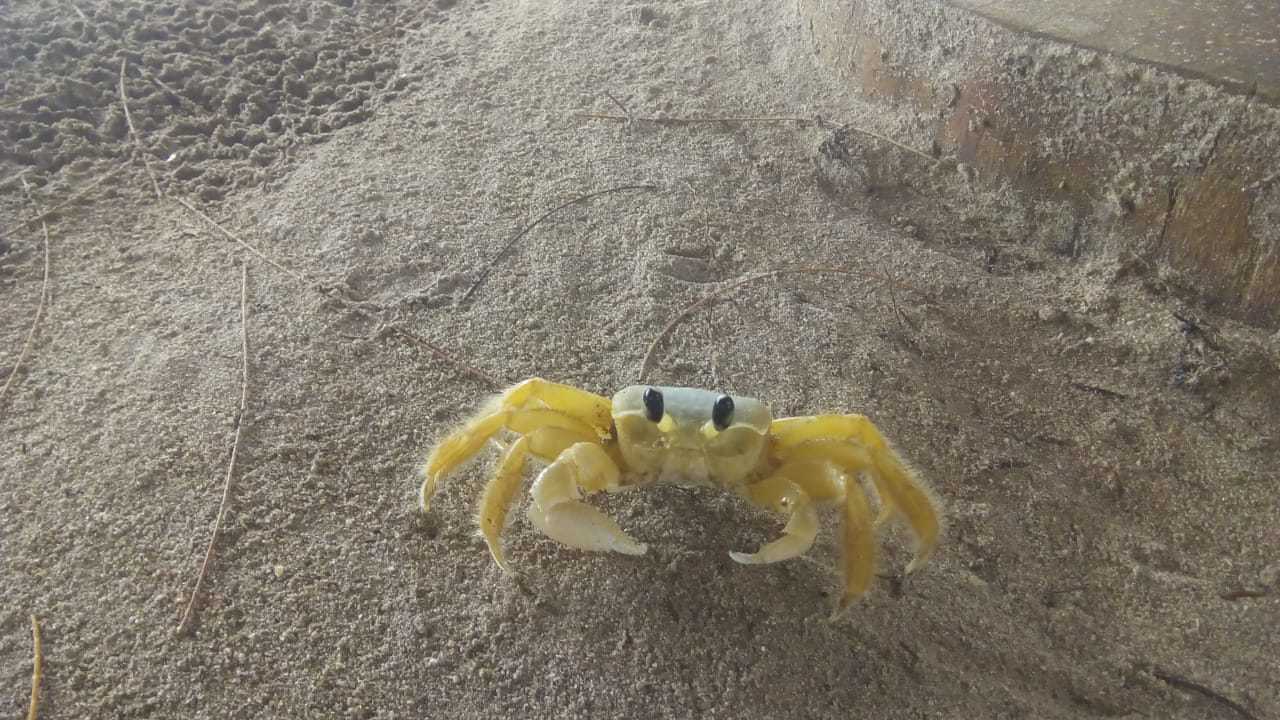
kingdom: Animalia
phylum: Arthropoda
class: Malacostraca
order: Decapoda
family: Ocypodidae
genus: Ocypode
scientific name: Ocypode quadrata
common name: Ghost crab
